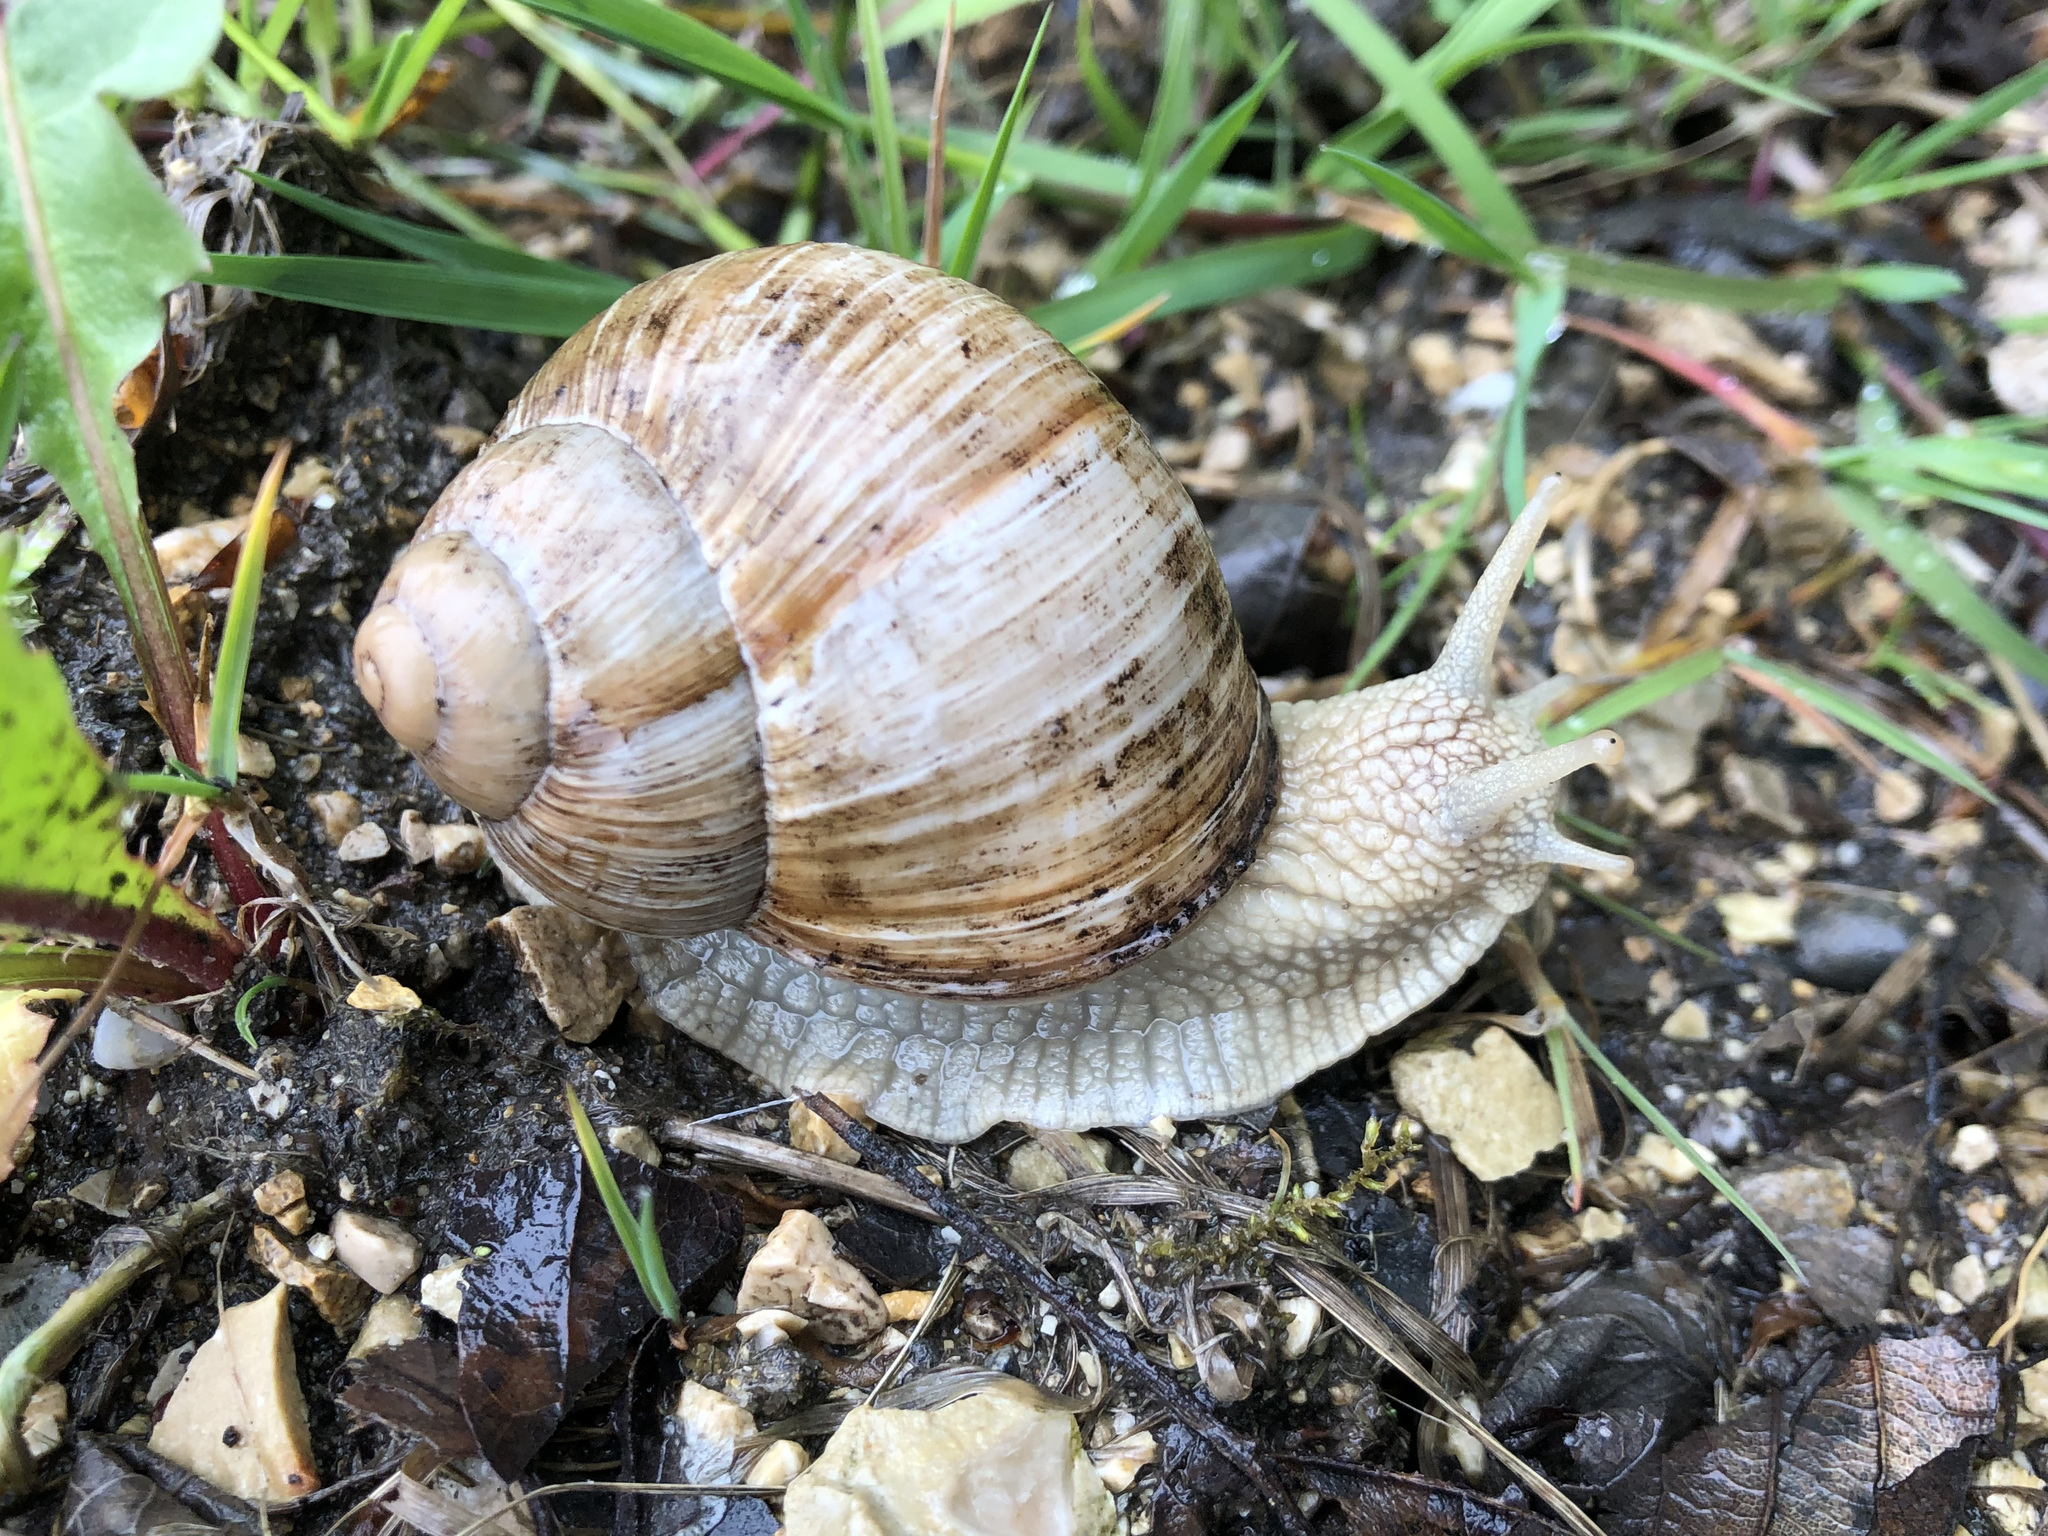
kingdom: Animalia
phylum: Mollusca
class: Gastropoda
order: Stylommatophora
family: Helicidae
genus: Helix
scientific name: Helix pomatia
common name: Roman snail
